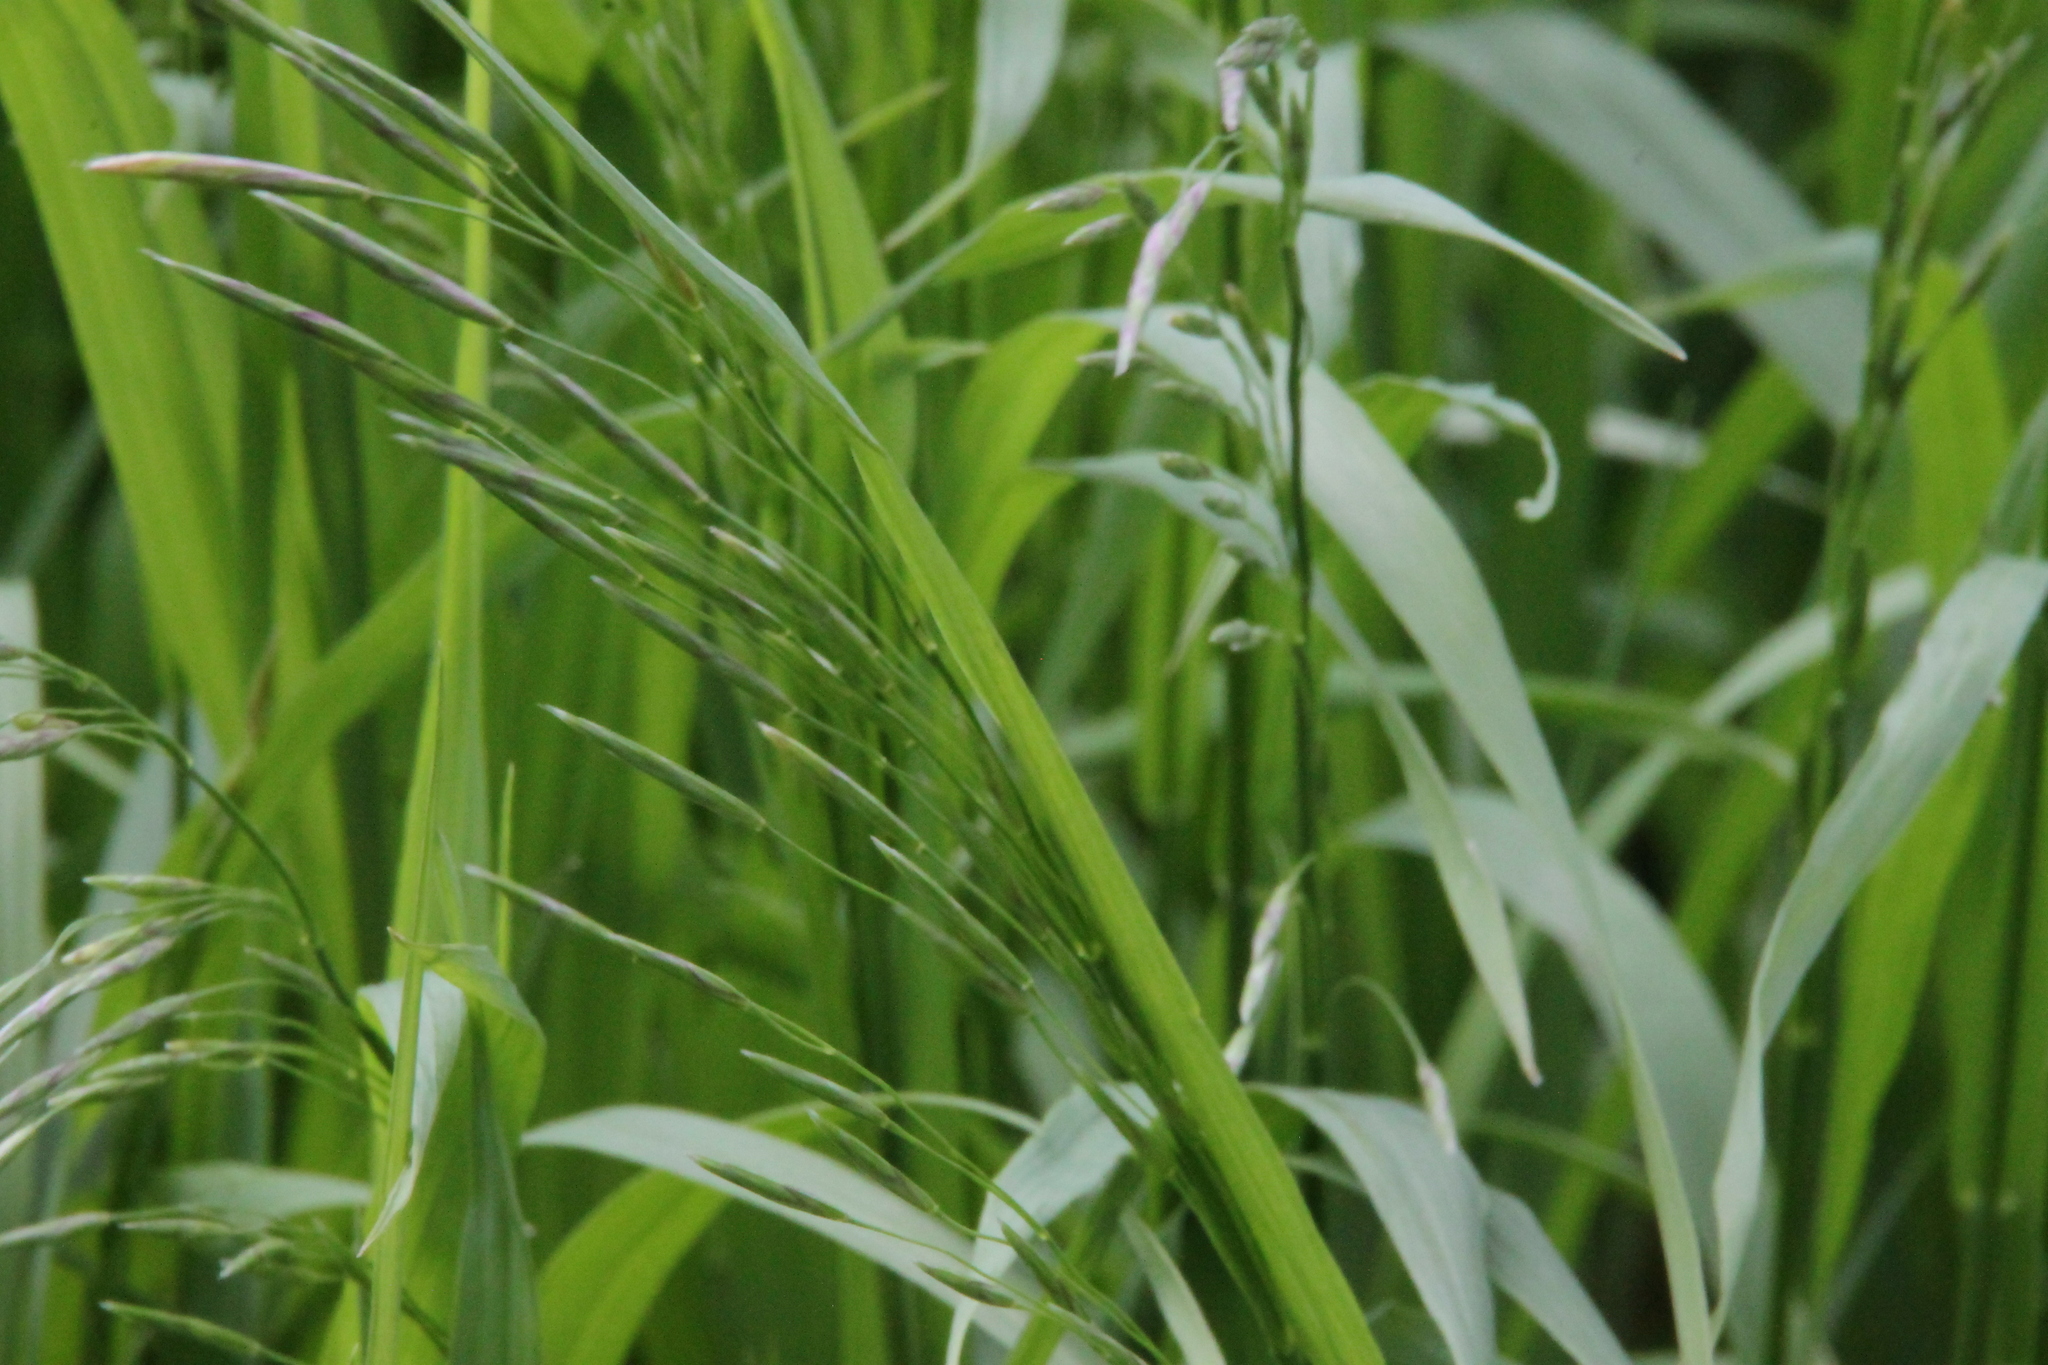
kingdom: Plantae
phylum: Tracheophyta
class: Liliopsida
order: Poales
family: Poaceae
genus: Bromus
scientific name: Bromus inermis
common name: Smooth brome
